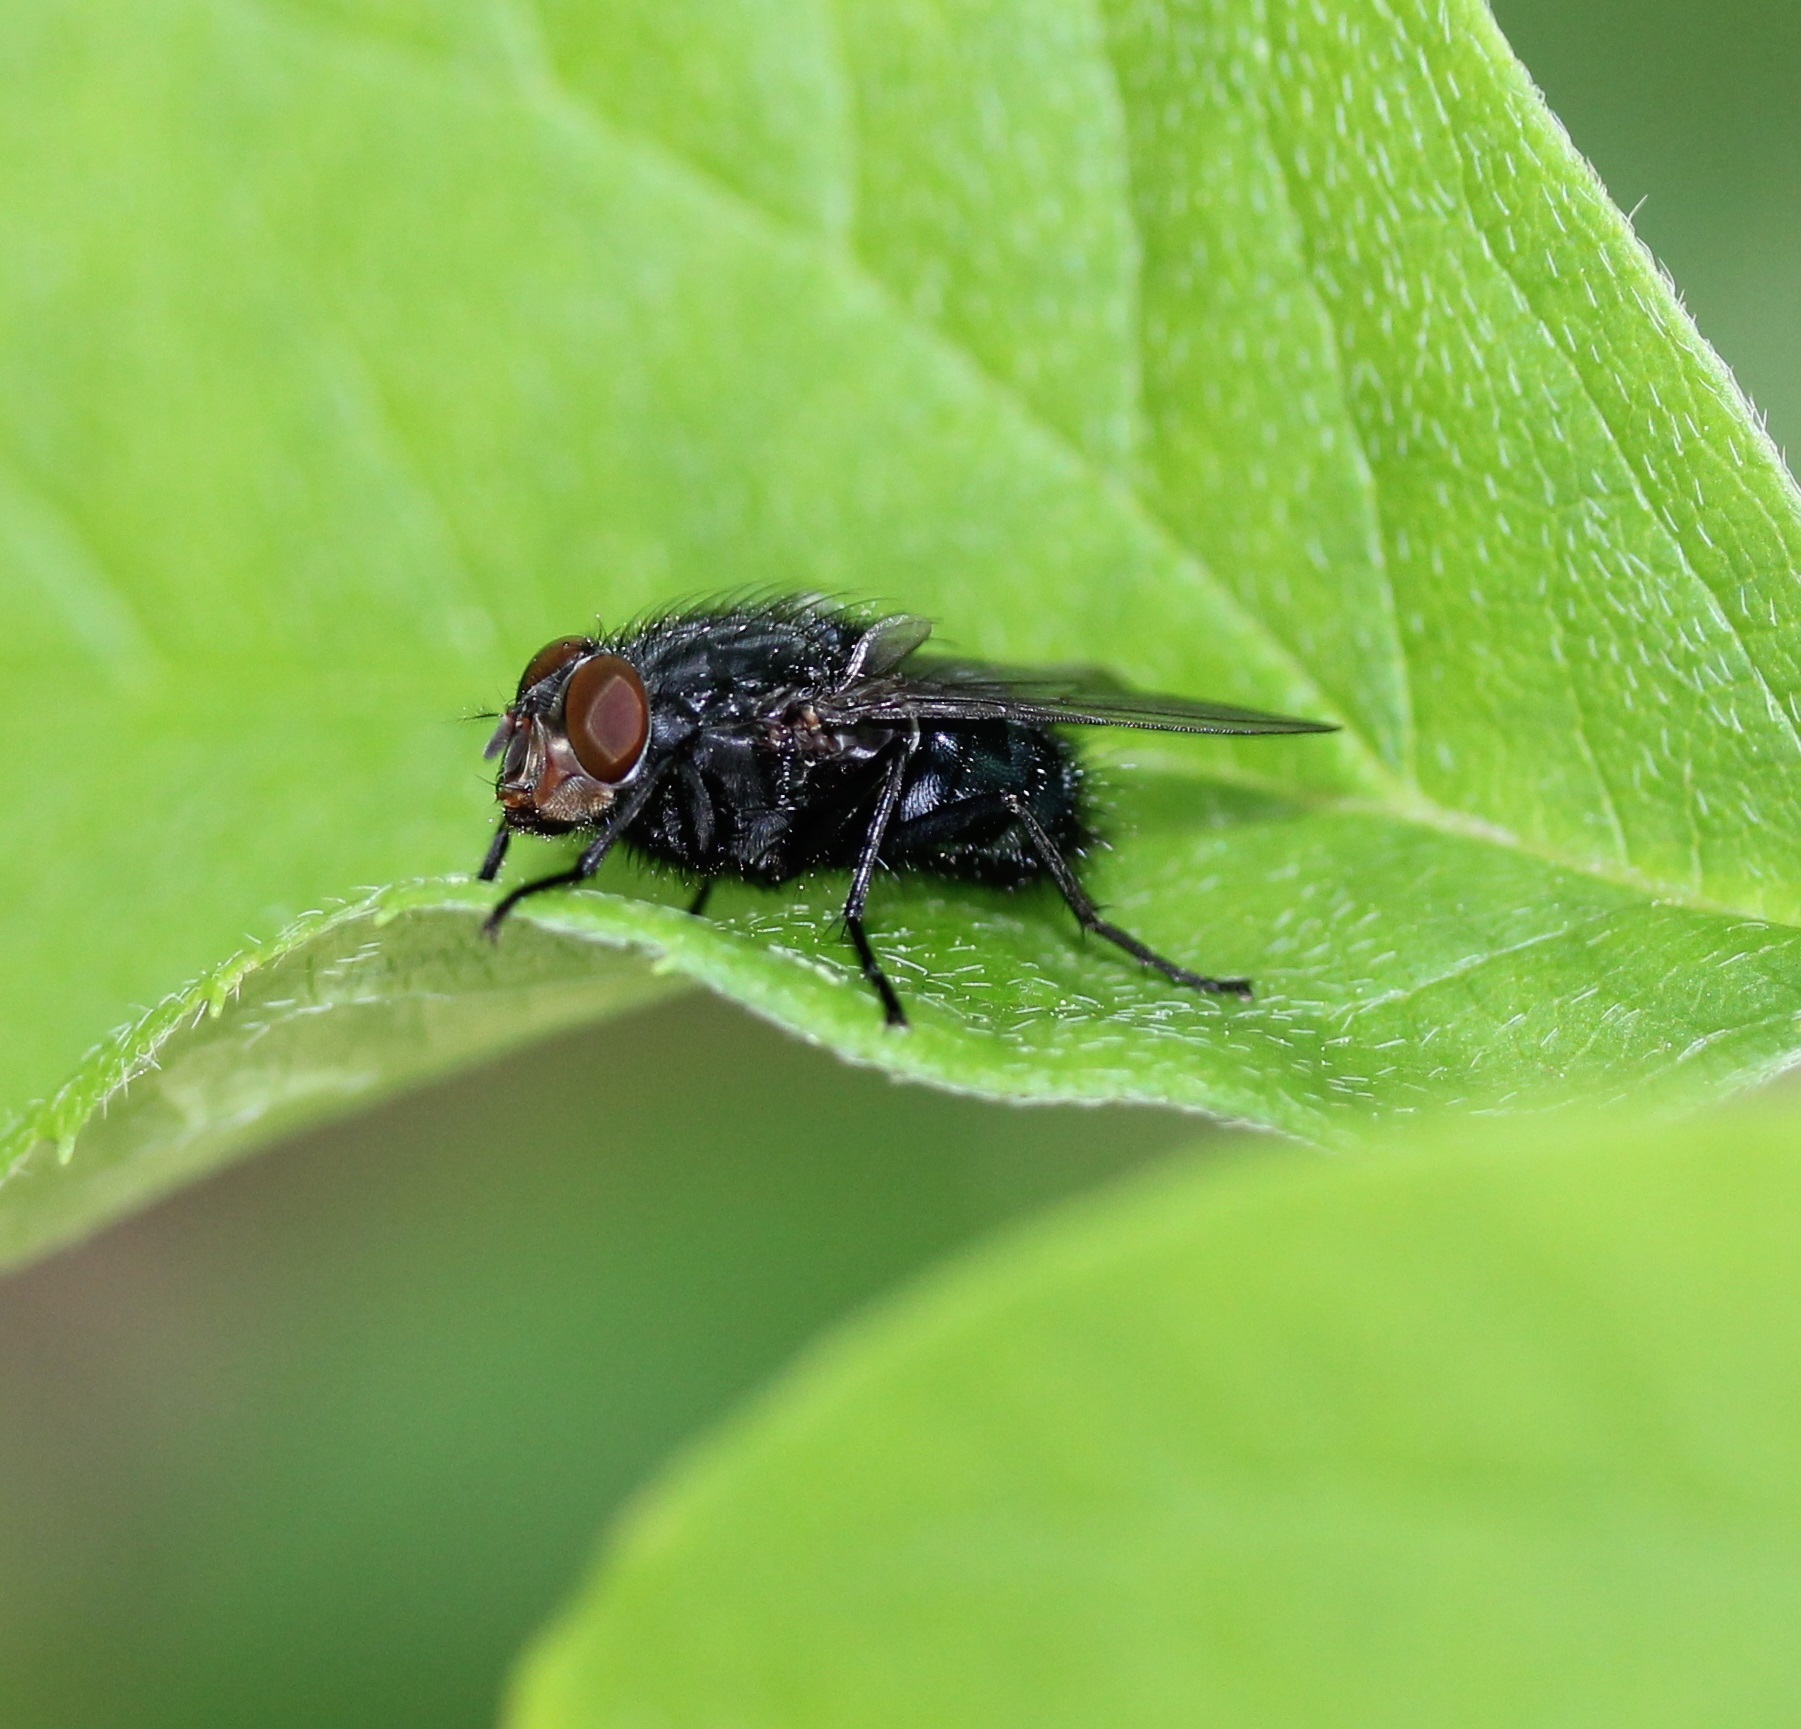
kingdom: Animalia
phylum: Arthropoda
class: Insecta
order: Diptera
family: Calliphoridae
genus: Calliphora
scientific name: Calliphora vicina
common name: Common blow flie
